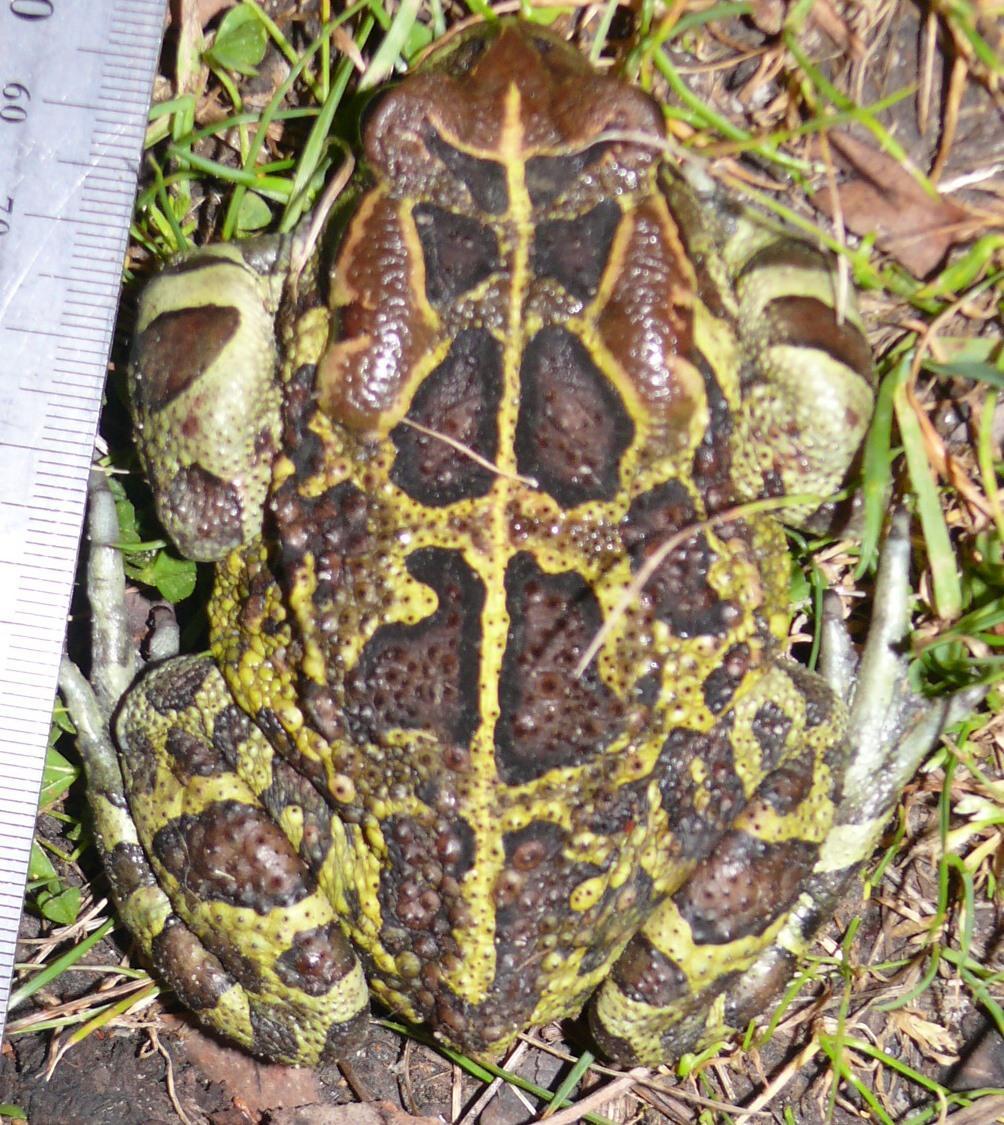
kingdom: Animalia
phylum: Chordata
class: Amphibia
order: Anura
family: Bufonidae
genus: Sclerophrys
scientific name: Sclerophrys pantherina
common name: Panther toad
